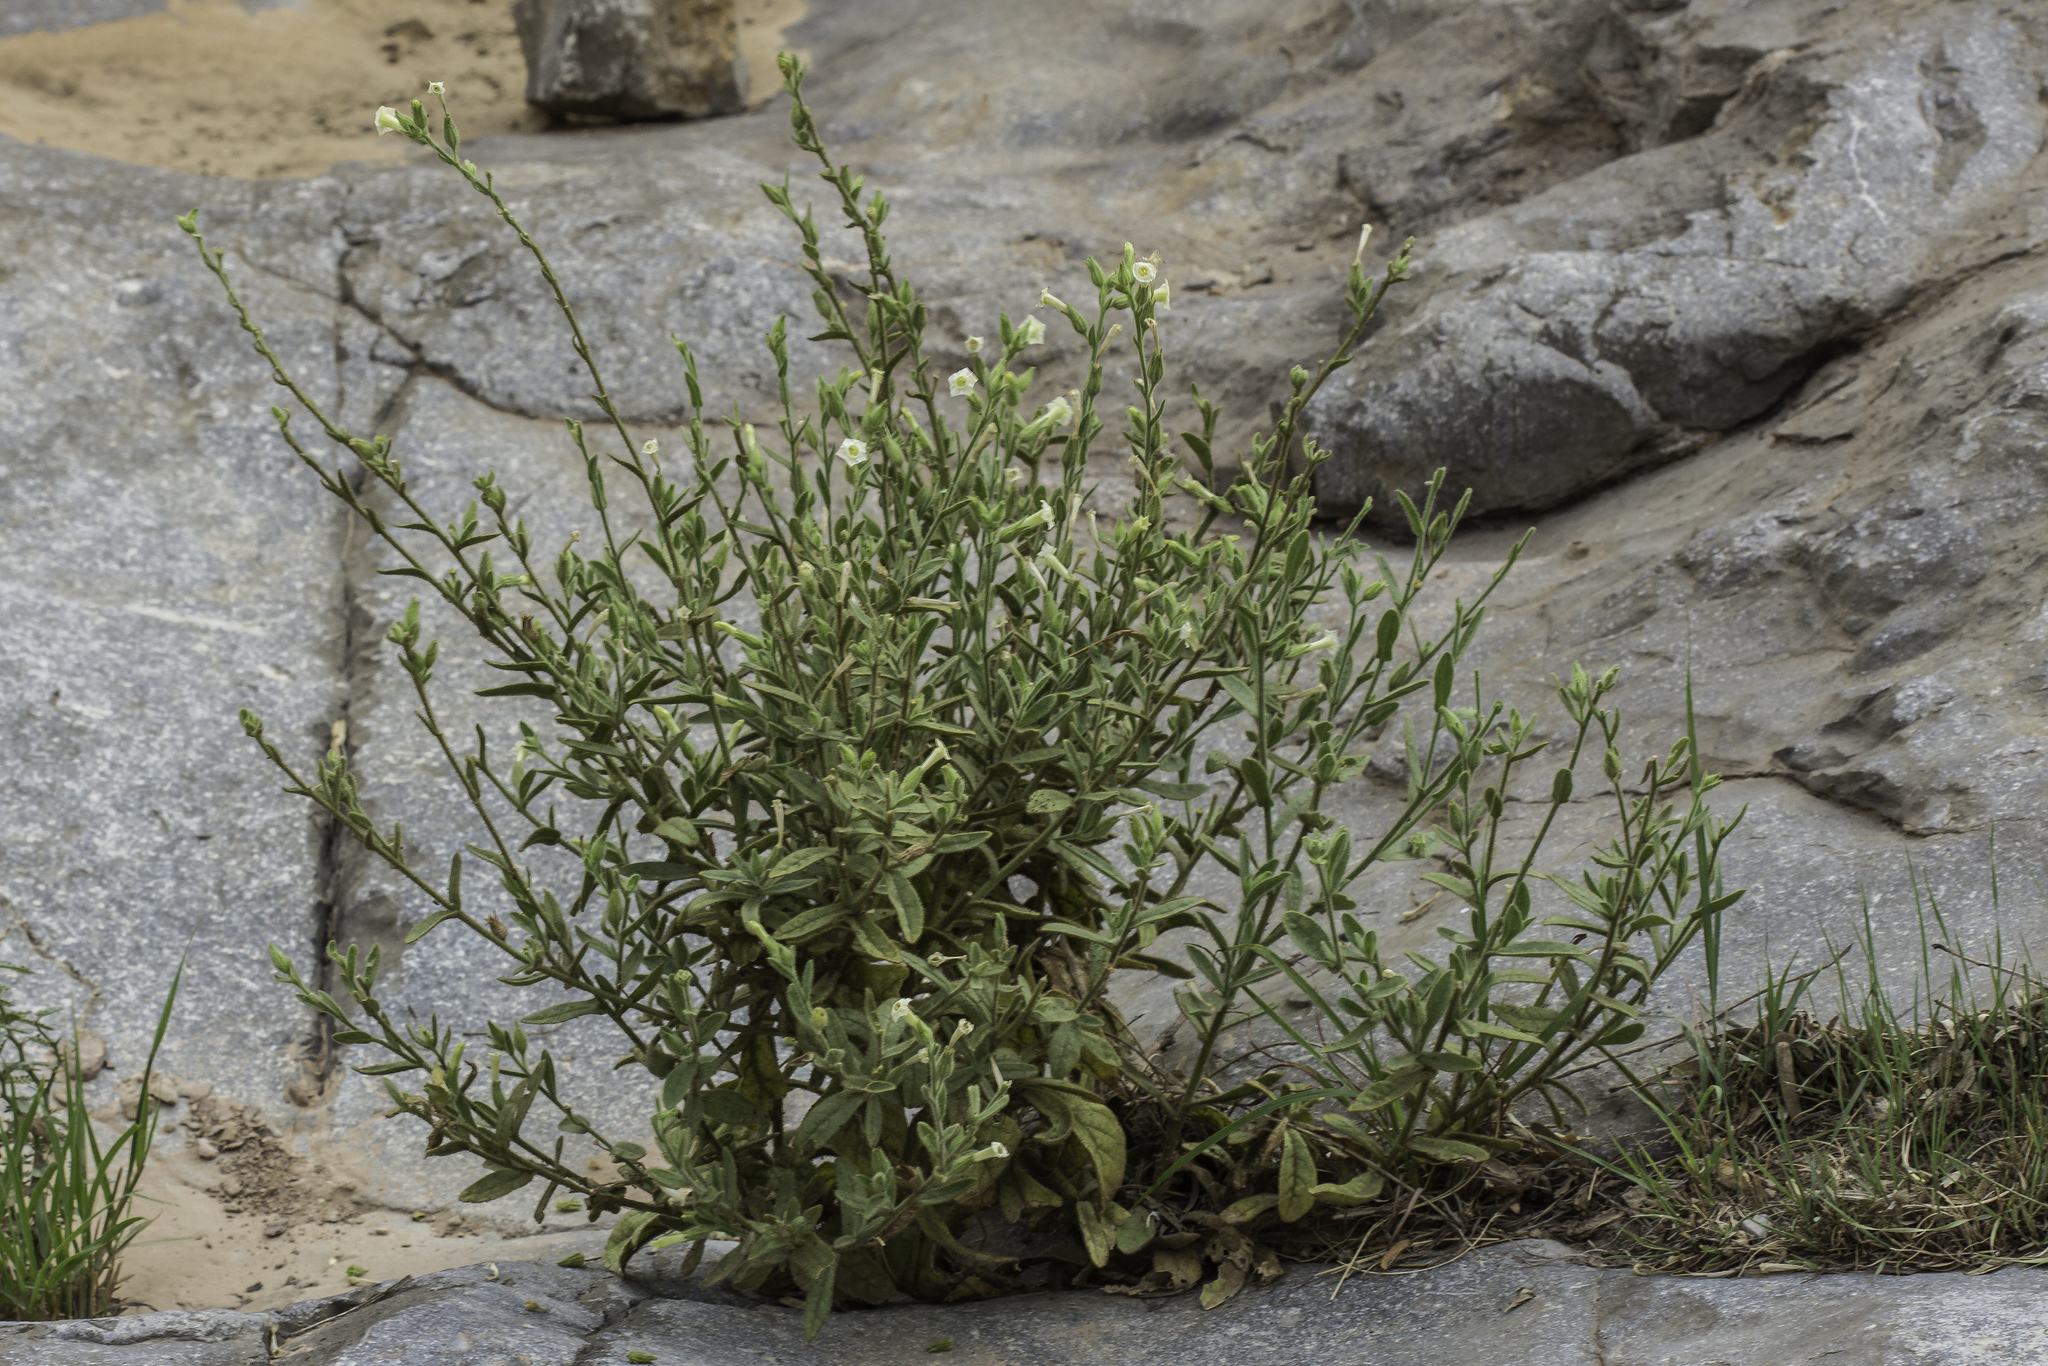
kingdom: Plantae
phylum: Tracheophyta
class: Magnoliopsida
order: Solanales
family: Solanaceae
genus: Nicotiana
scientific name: Nicotiana obtusifolia
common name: Desert tobacco
